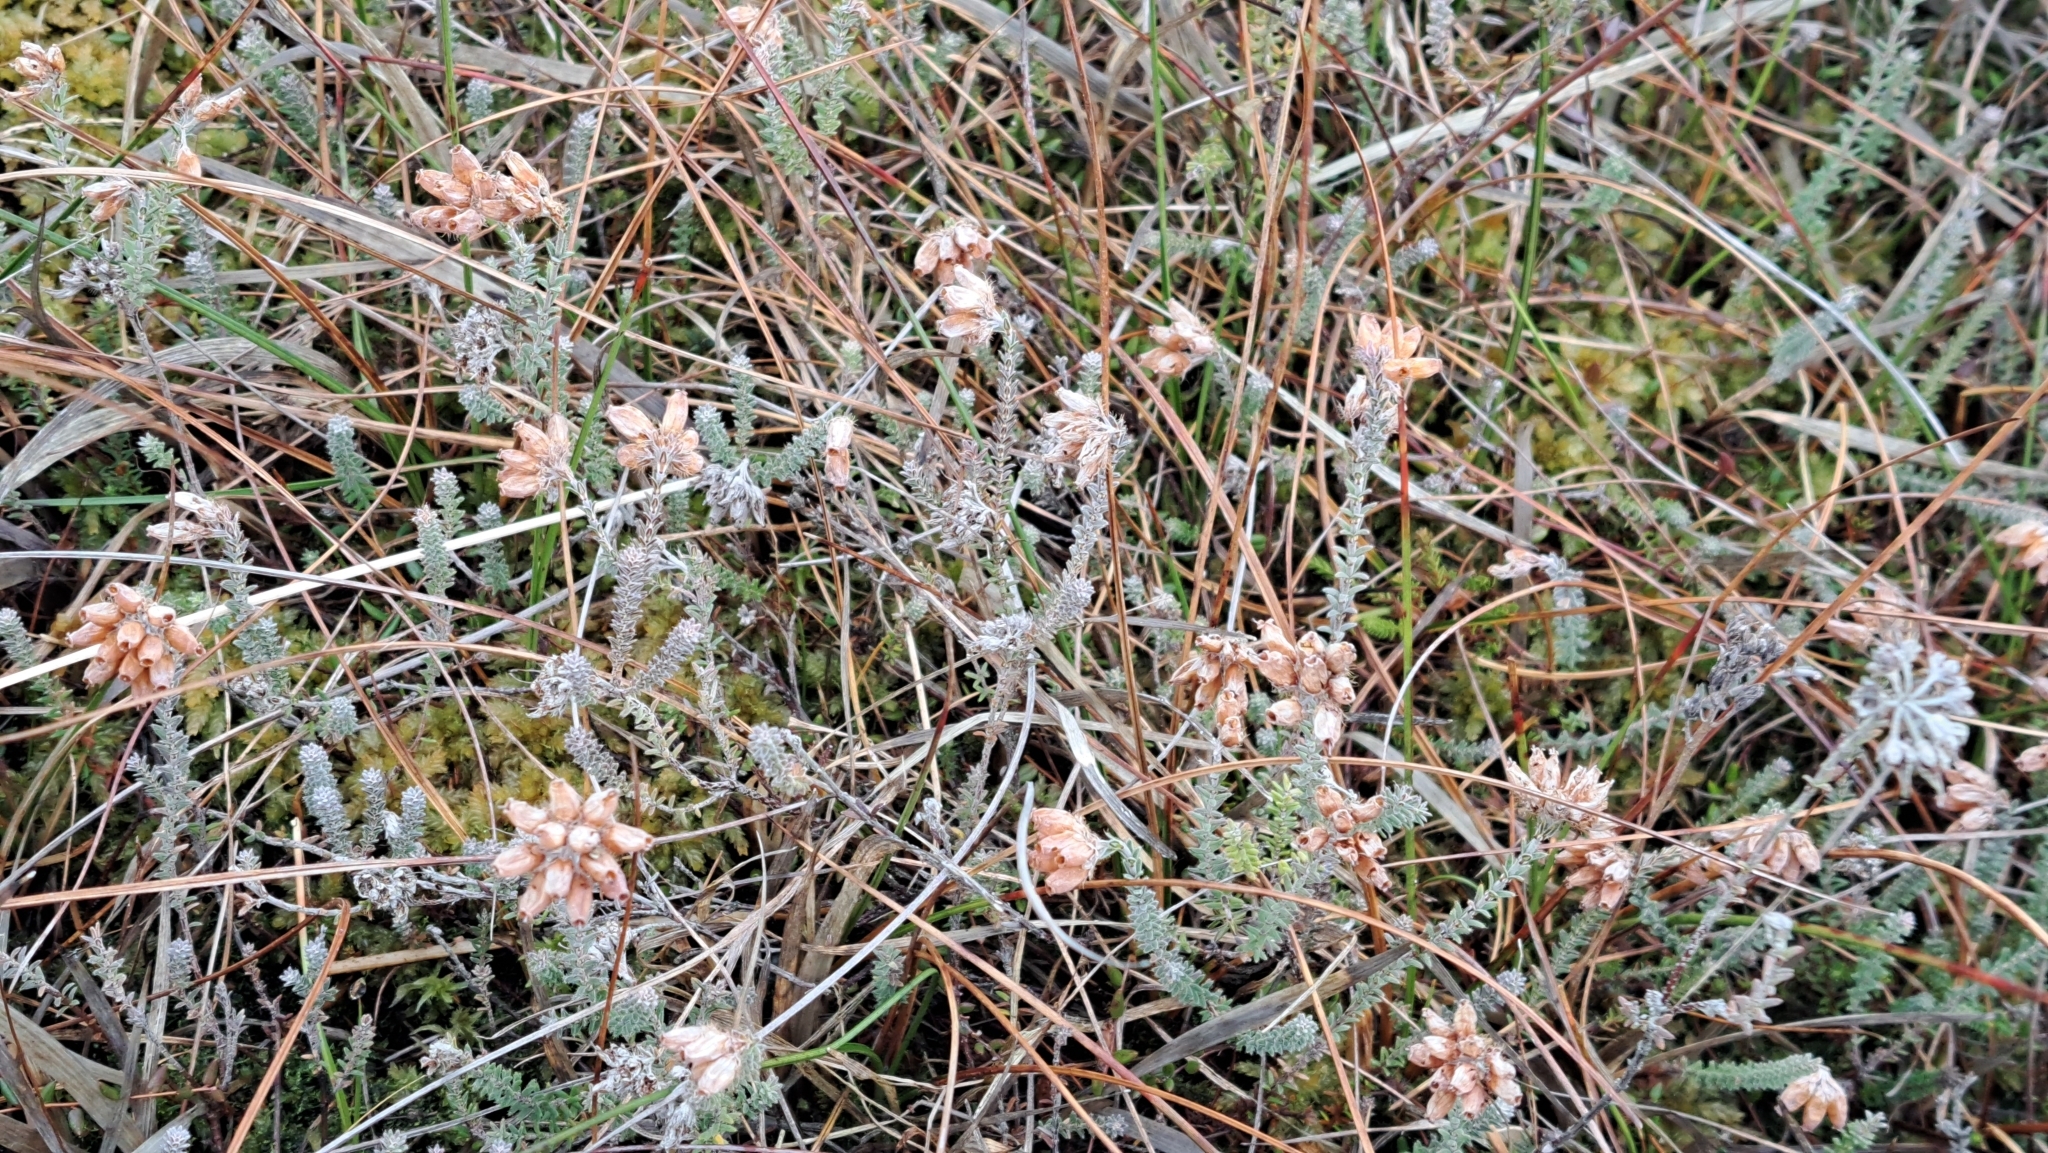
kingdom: Plantae
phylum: Tracheophyta
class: Magnoliopsida
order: Ericales
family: Ericaceae
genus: Erica
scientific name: Erica tetralix
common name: Cross-leaved heath
